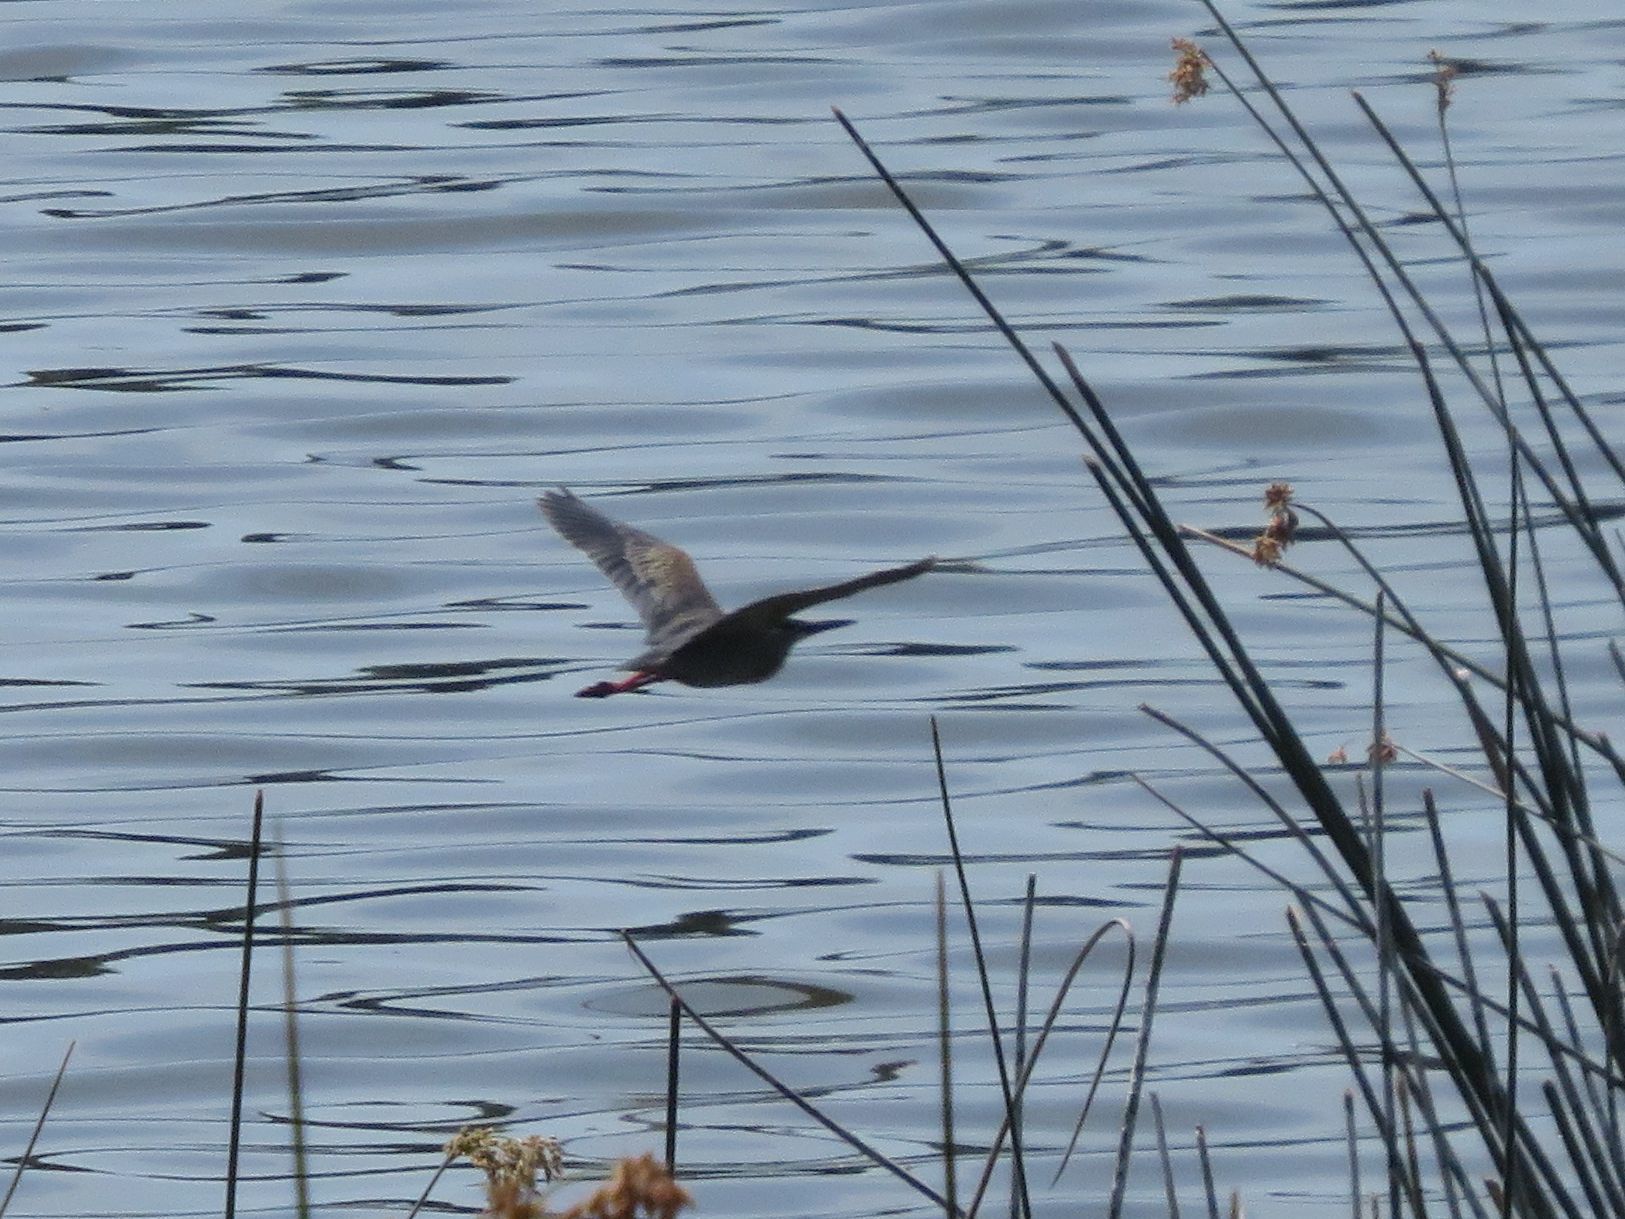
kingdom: Animalia
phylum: Chordata
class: Aves
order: Pelecaniformes
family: Ardeidae
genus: Butorides
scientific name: Butorides striata
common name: Striated heron
